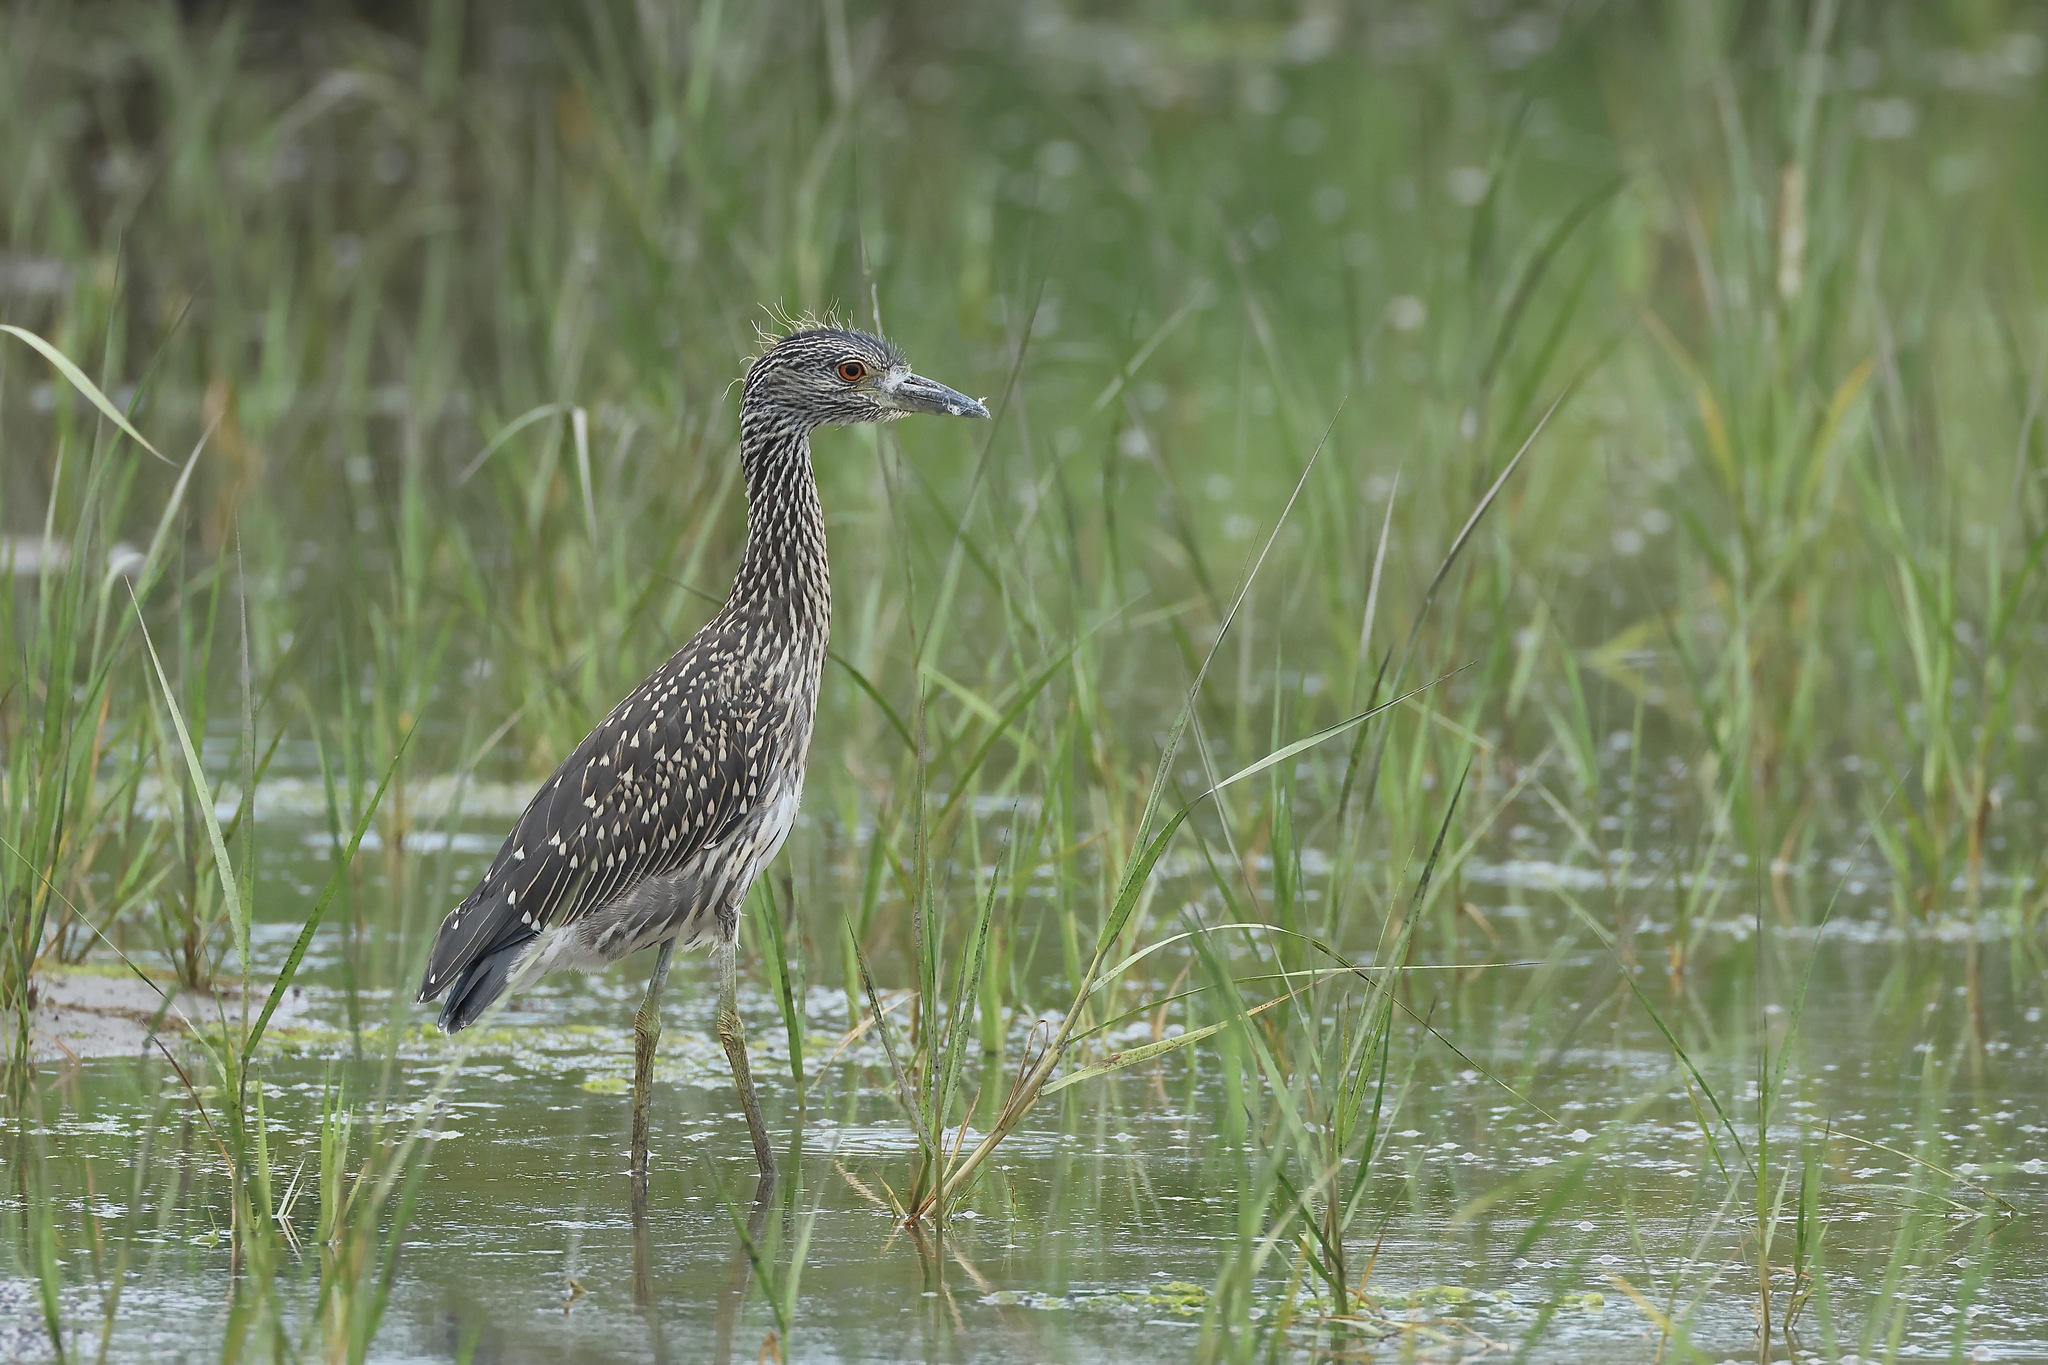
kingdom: Animalia
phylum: Chordata
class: Aves
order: Pelecaniformes
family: Ardeidae
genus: Nyctanassa
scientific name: Nyctanassa violacea
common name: Yellow-crowned night heron
